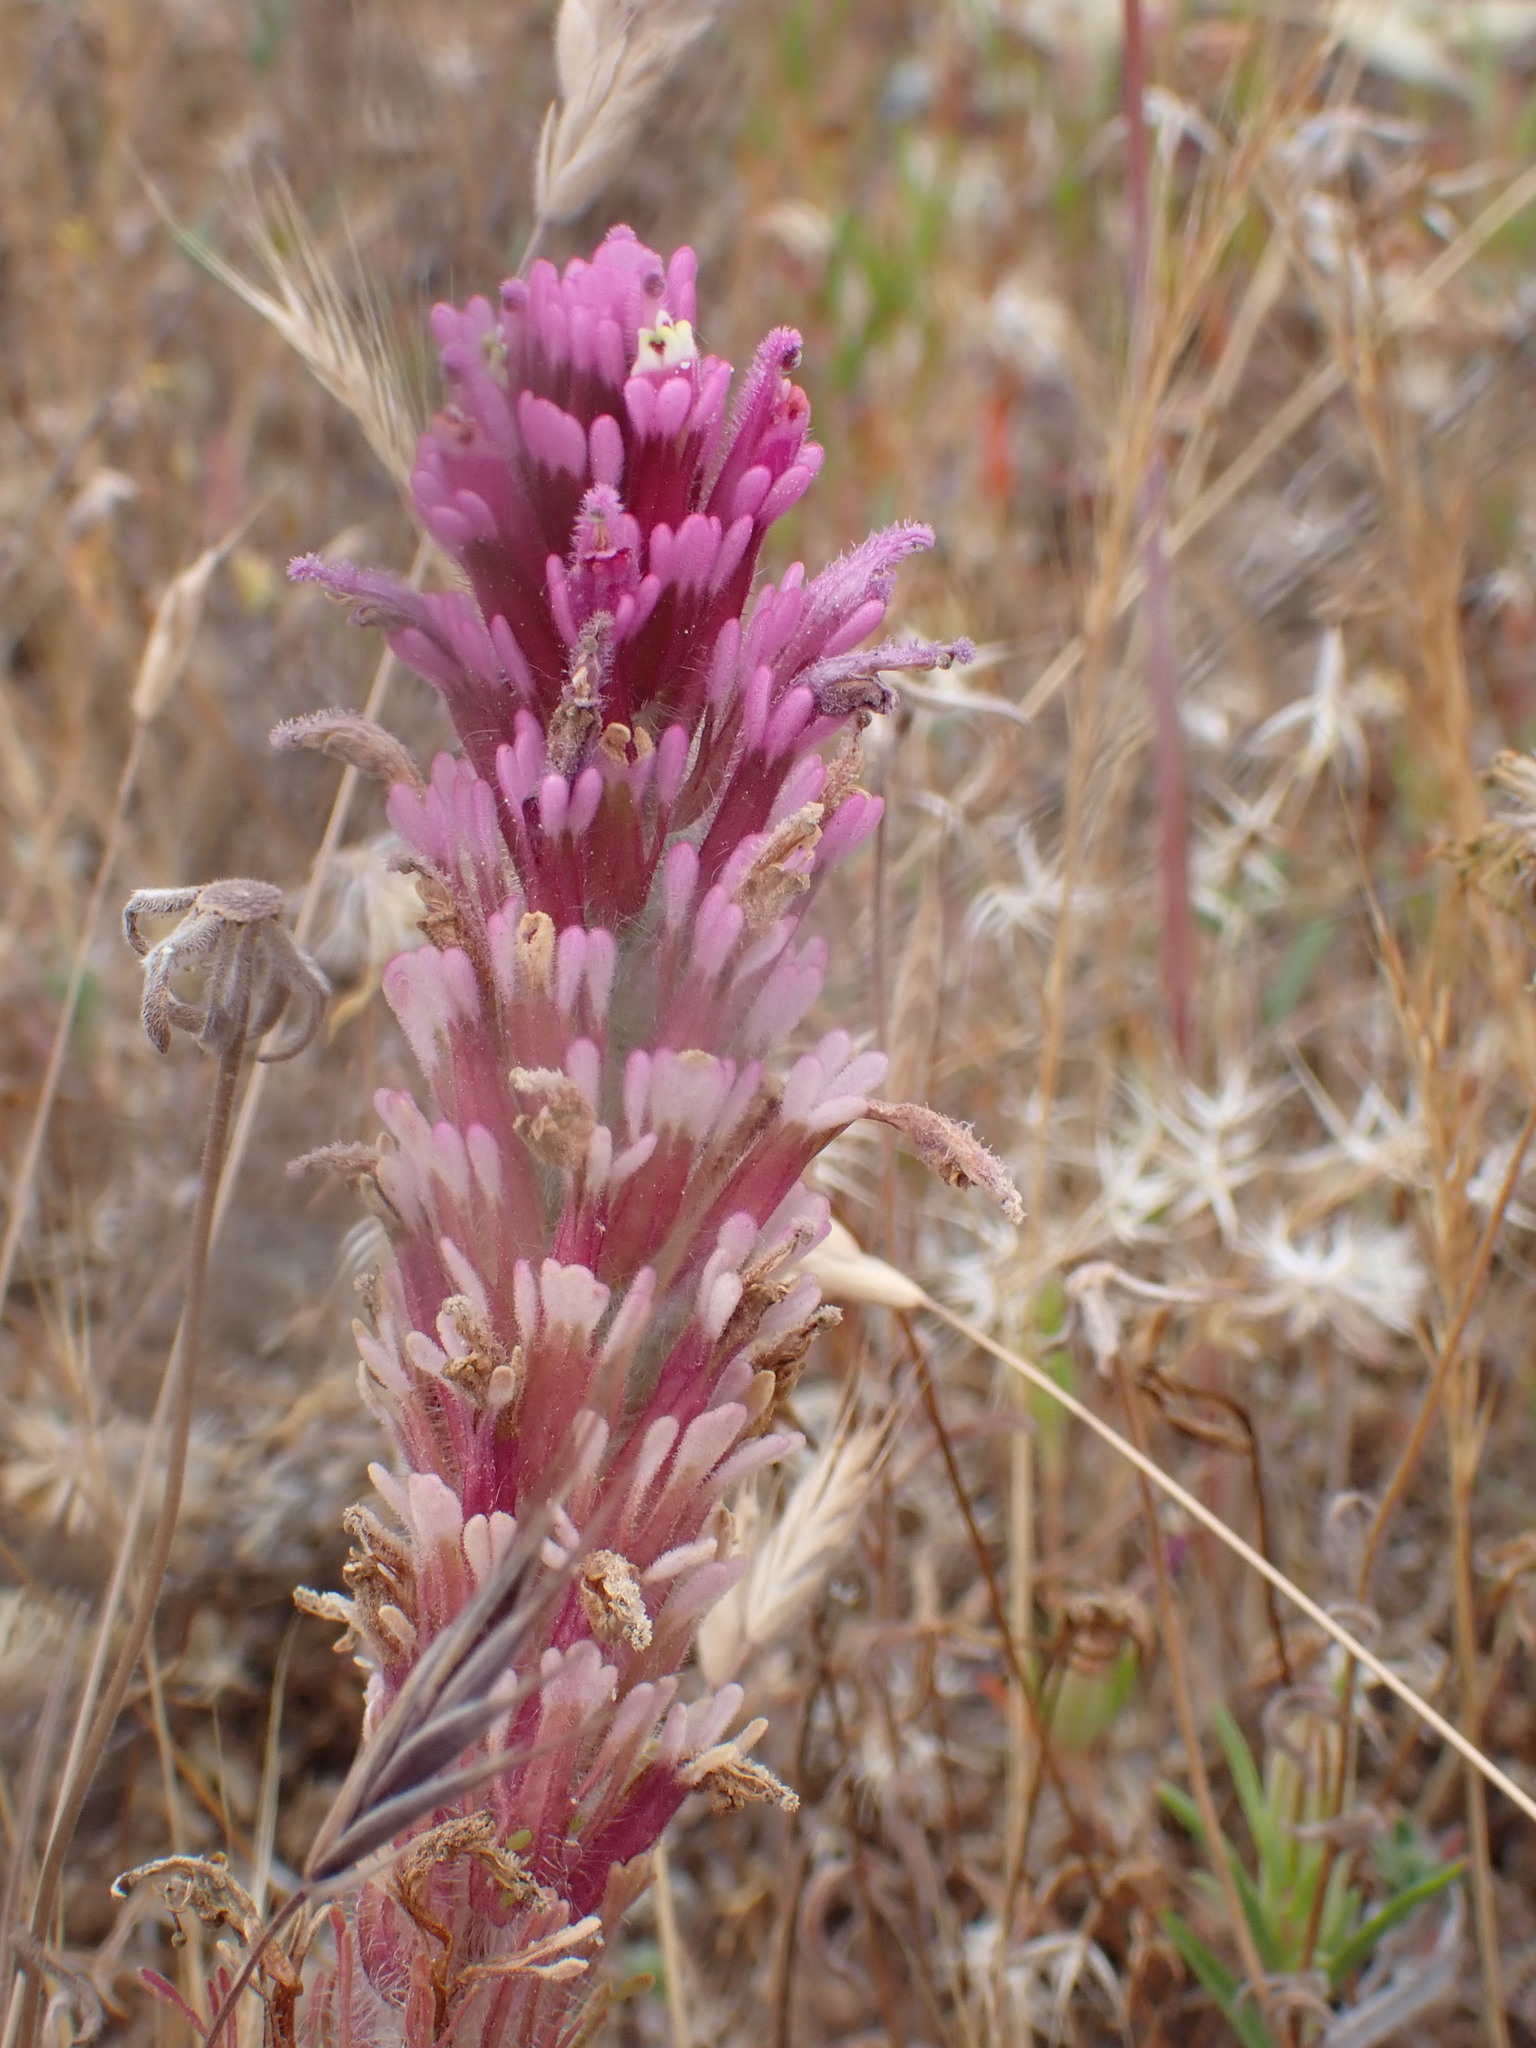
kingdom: Plantae
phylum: Tracheophyta
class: Magnoliopsida
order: Lamiales
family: Orobanchaceae
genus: Castilleja
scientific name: Castilleja exserta
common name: Purple owl-clover
